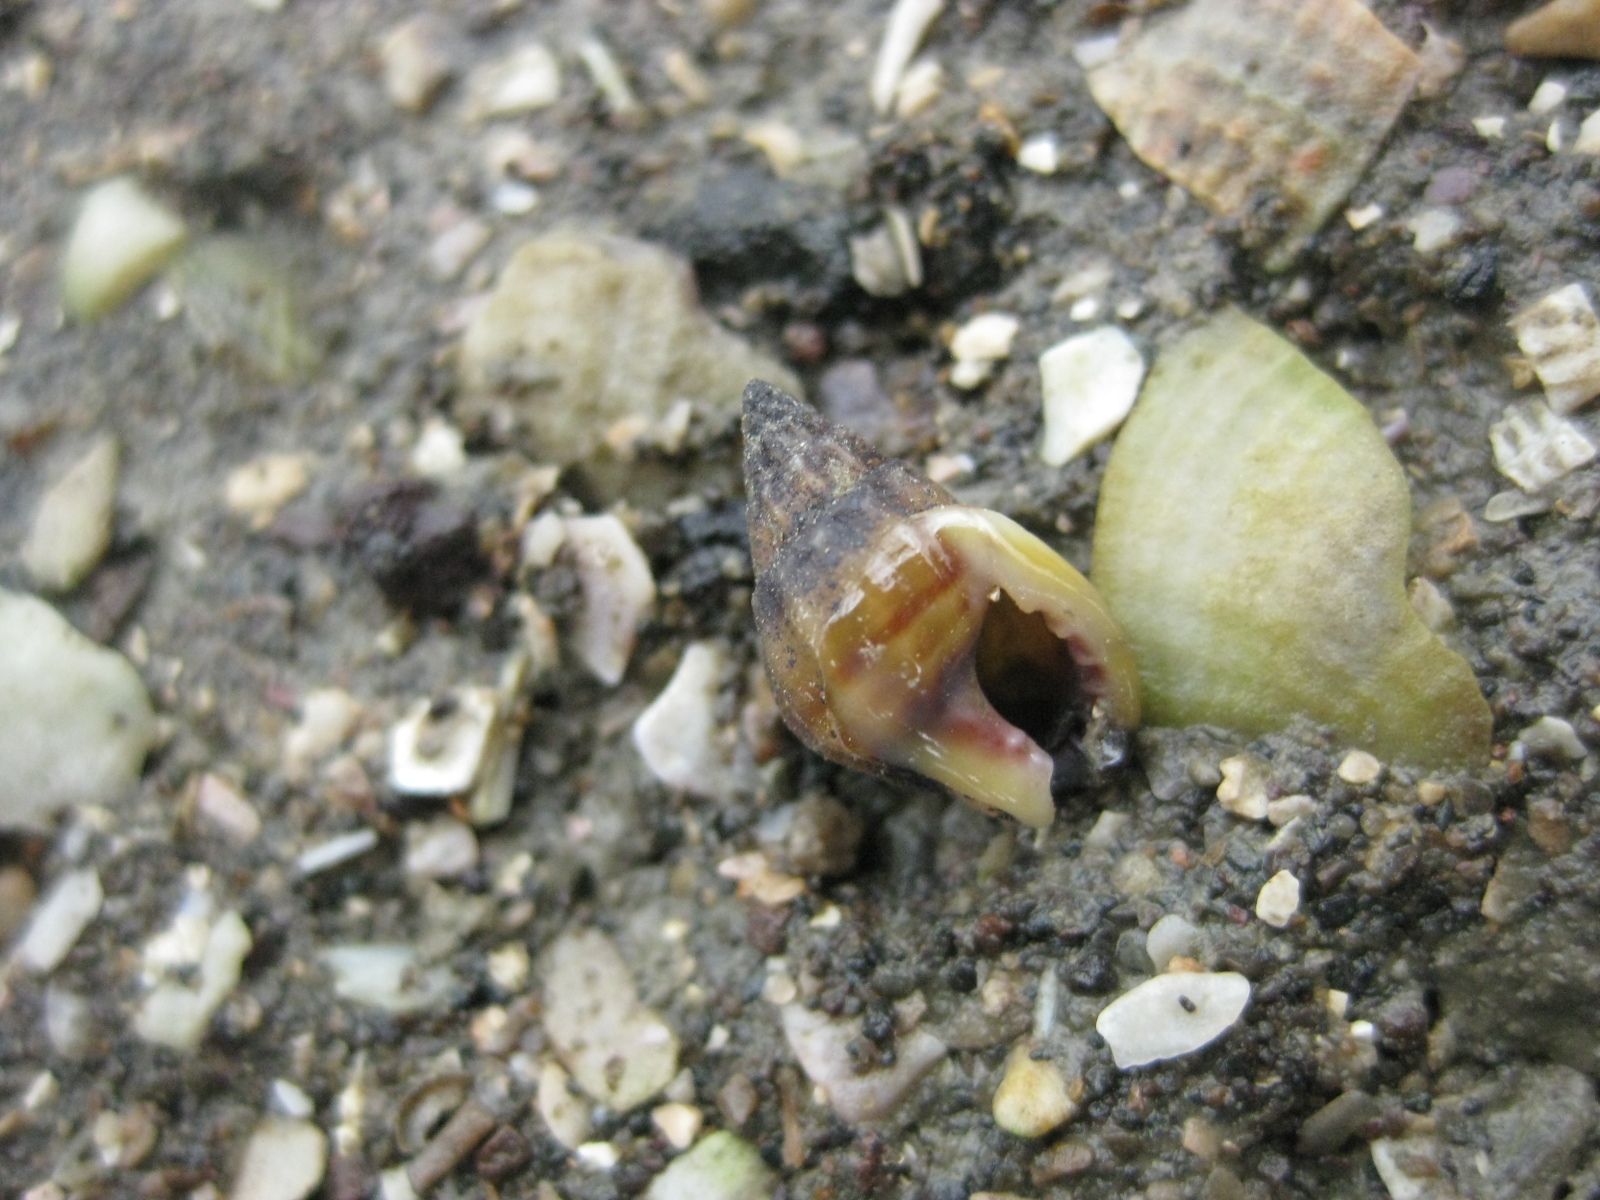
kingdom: Animalia
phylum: Mollusca
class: Gastropoda
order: Neogastropoda
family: Nassariidae
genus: Tritia
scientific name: Tritia burchardi
